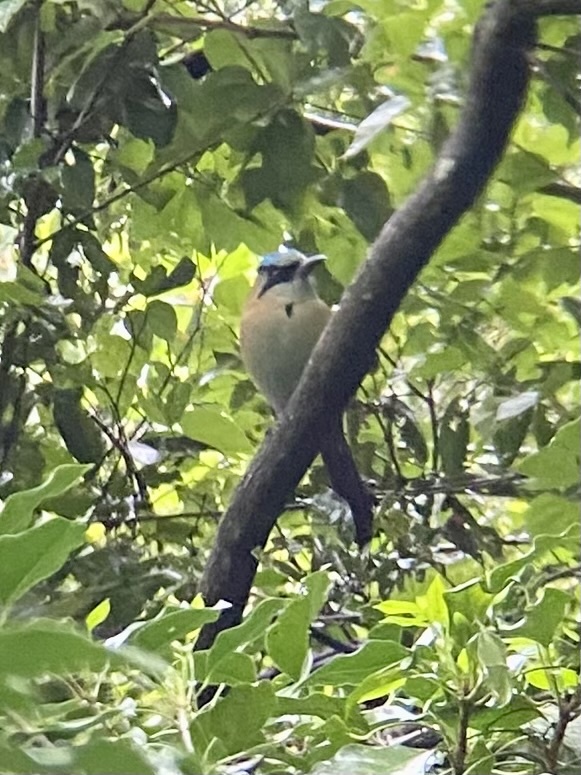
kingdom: Animalia
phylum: Chordata
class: Aves
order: Coraciiformes
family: Momotidae
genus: Momotus
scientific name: Momotus coeruliceps
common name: Blue-capped motmot
